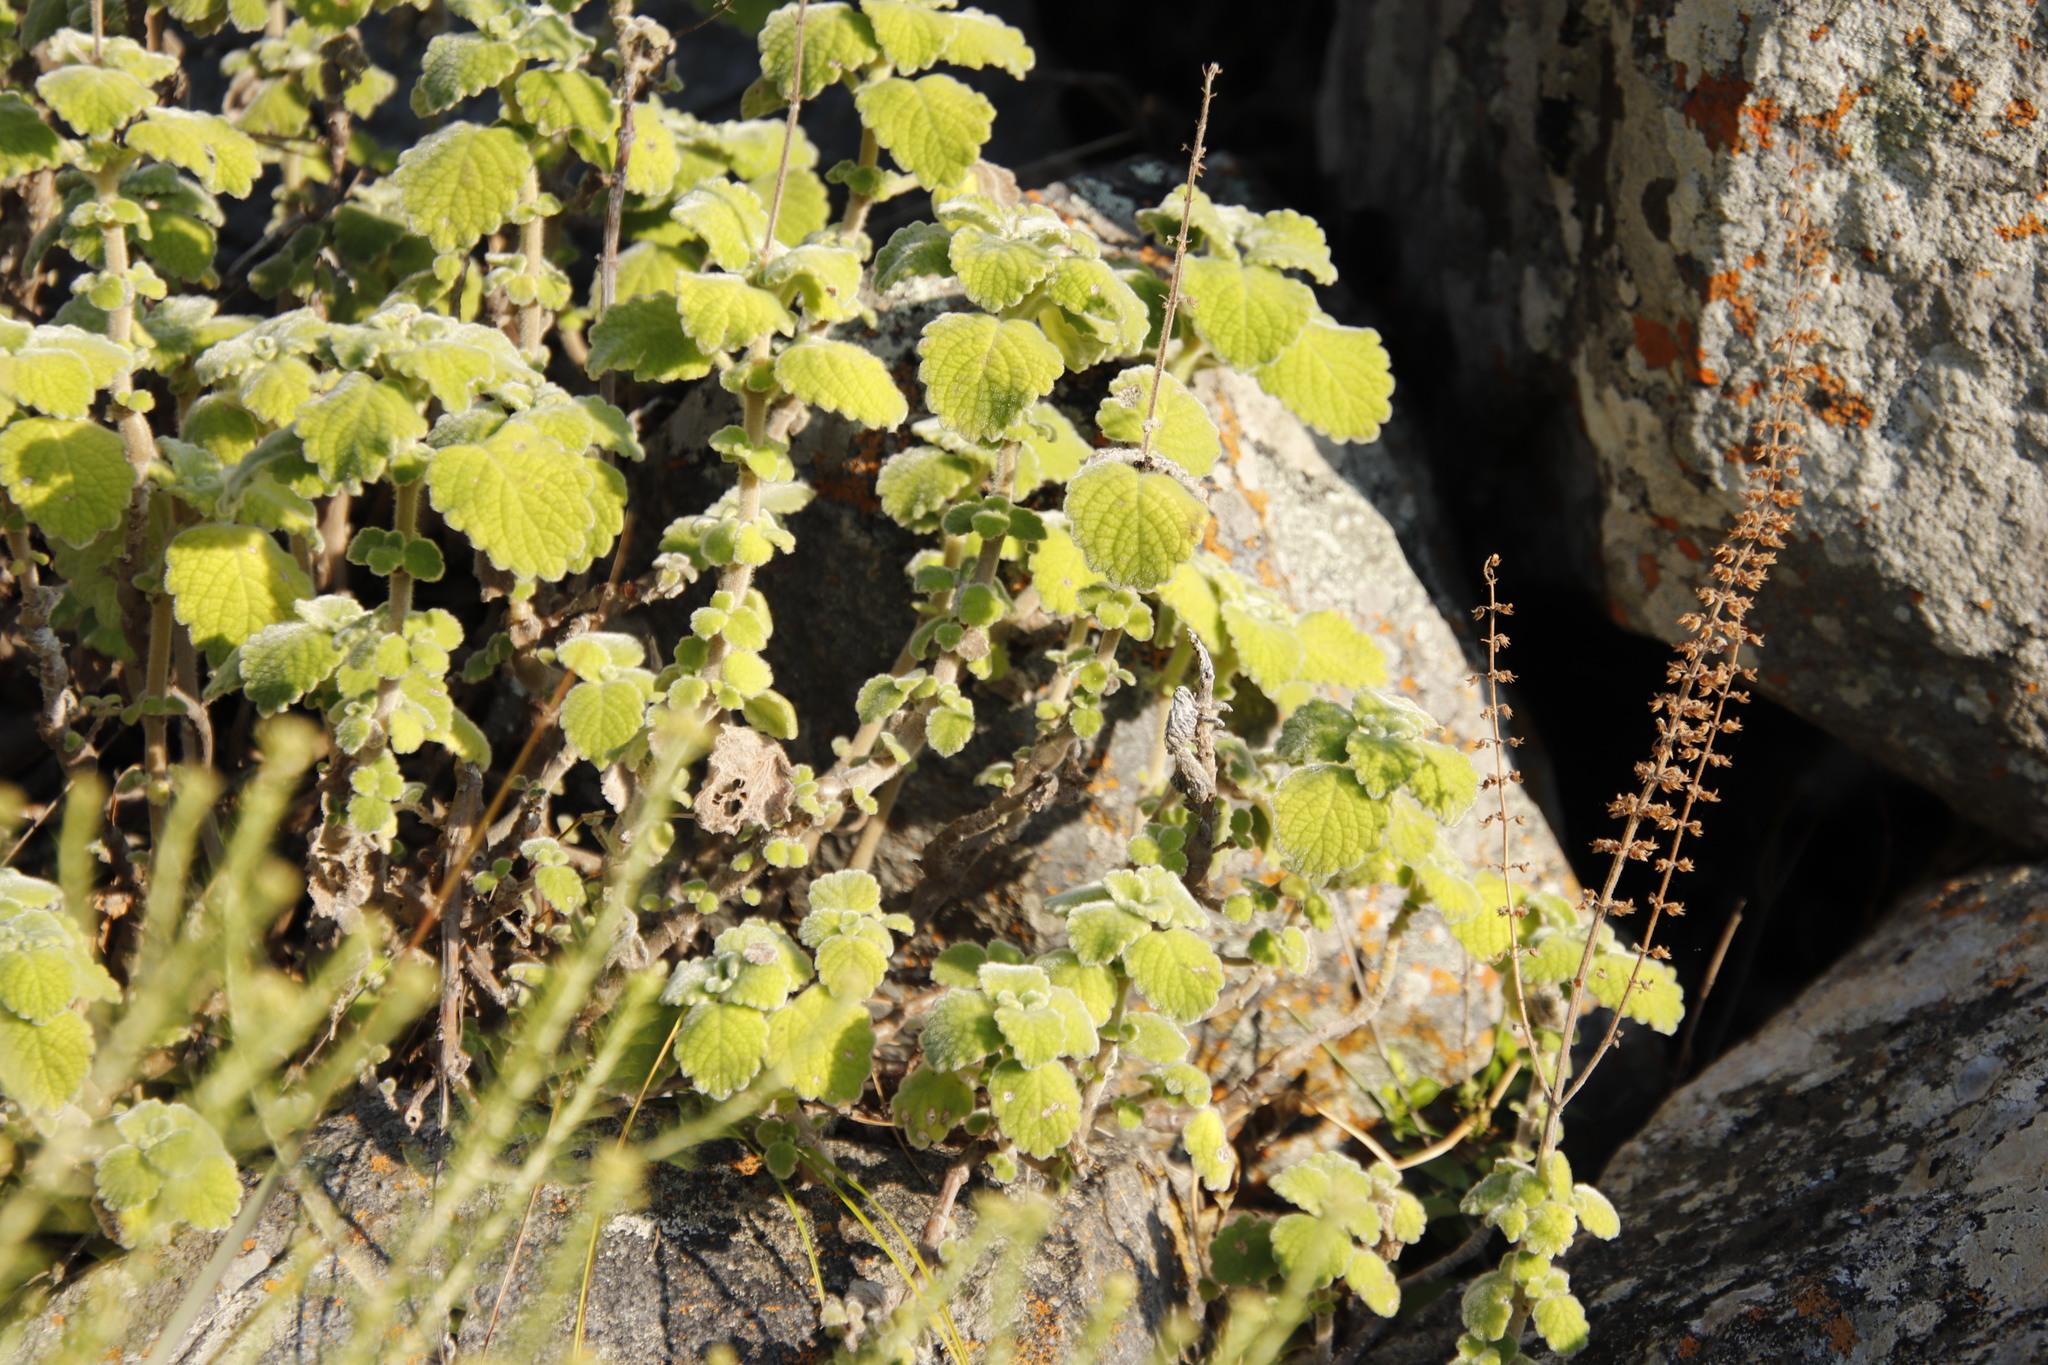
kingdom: Plantae
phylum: Tracheophyta
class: Magnoliopsida
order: Lamiales
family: Lamiaceae
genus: Coleus
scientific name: Coleus hadiensis
